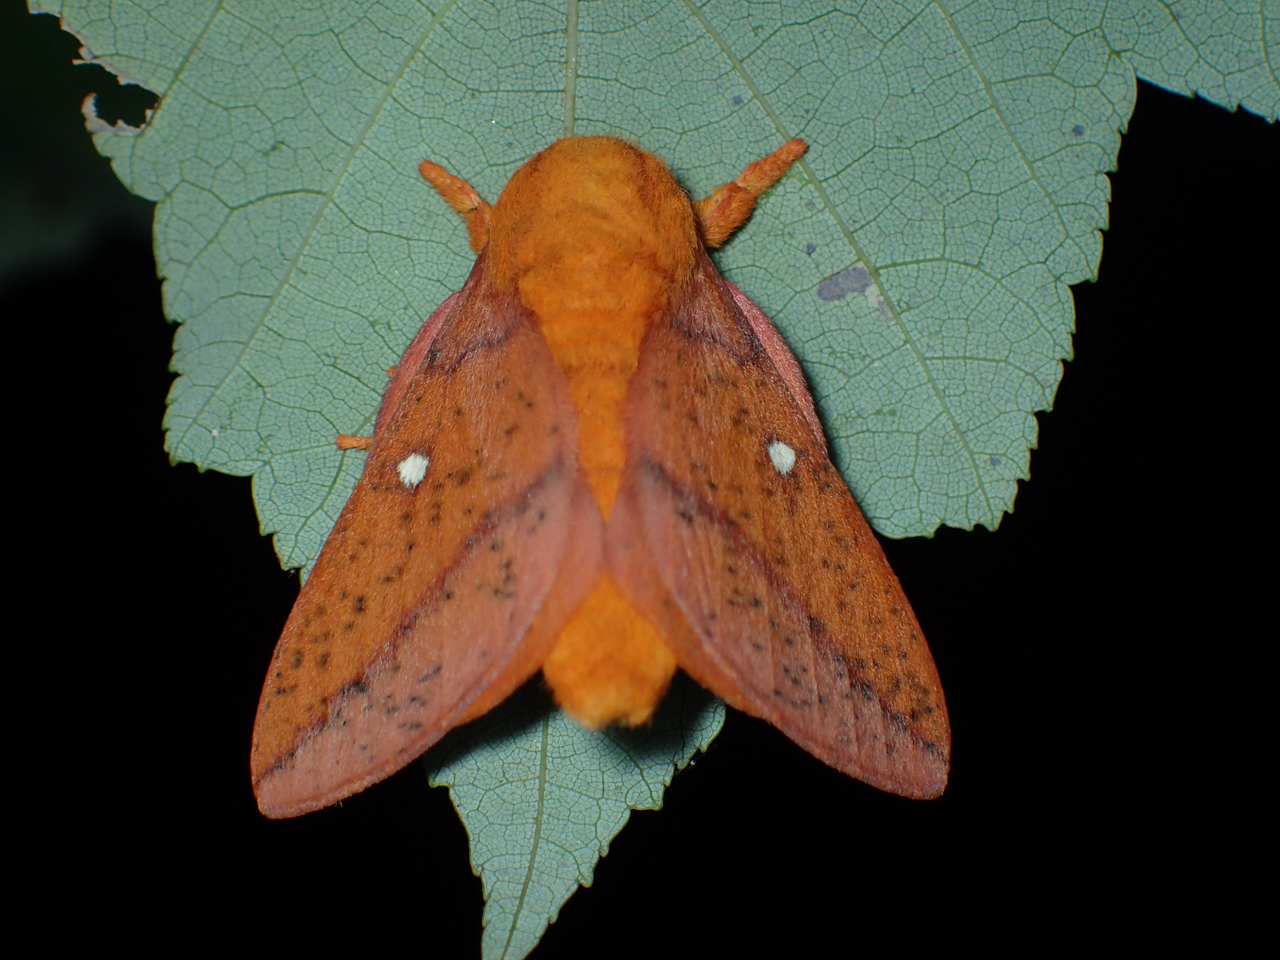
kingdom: Animalia
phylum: Arthropoda
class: Insecta
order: Lepidoptera
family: Saturniidae
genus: Anisota
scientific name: Anisota stigma
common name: Spiny oakworm moth
